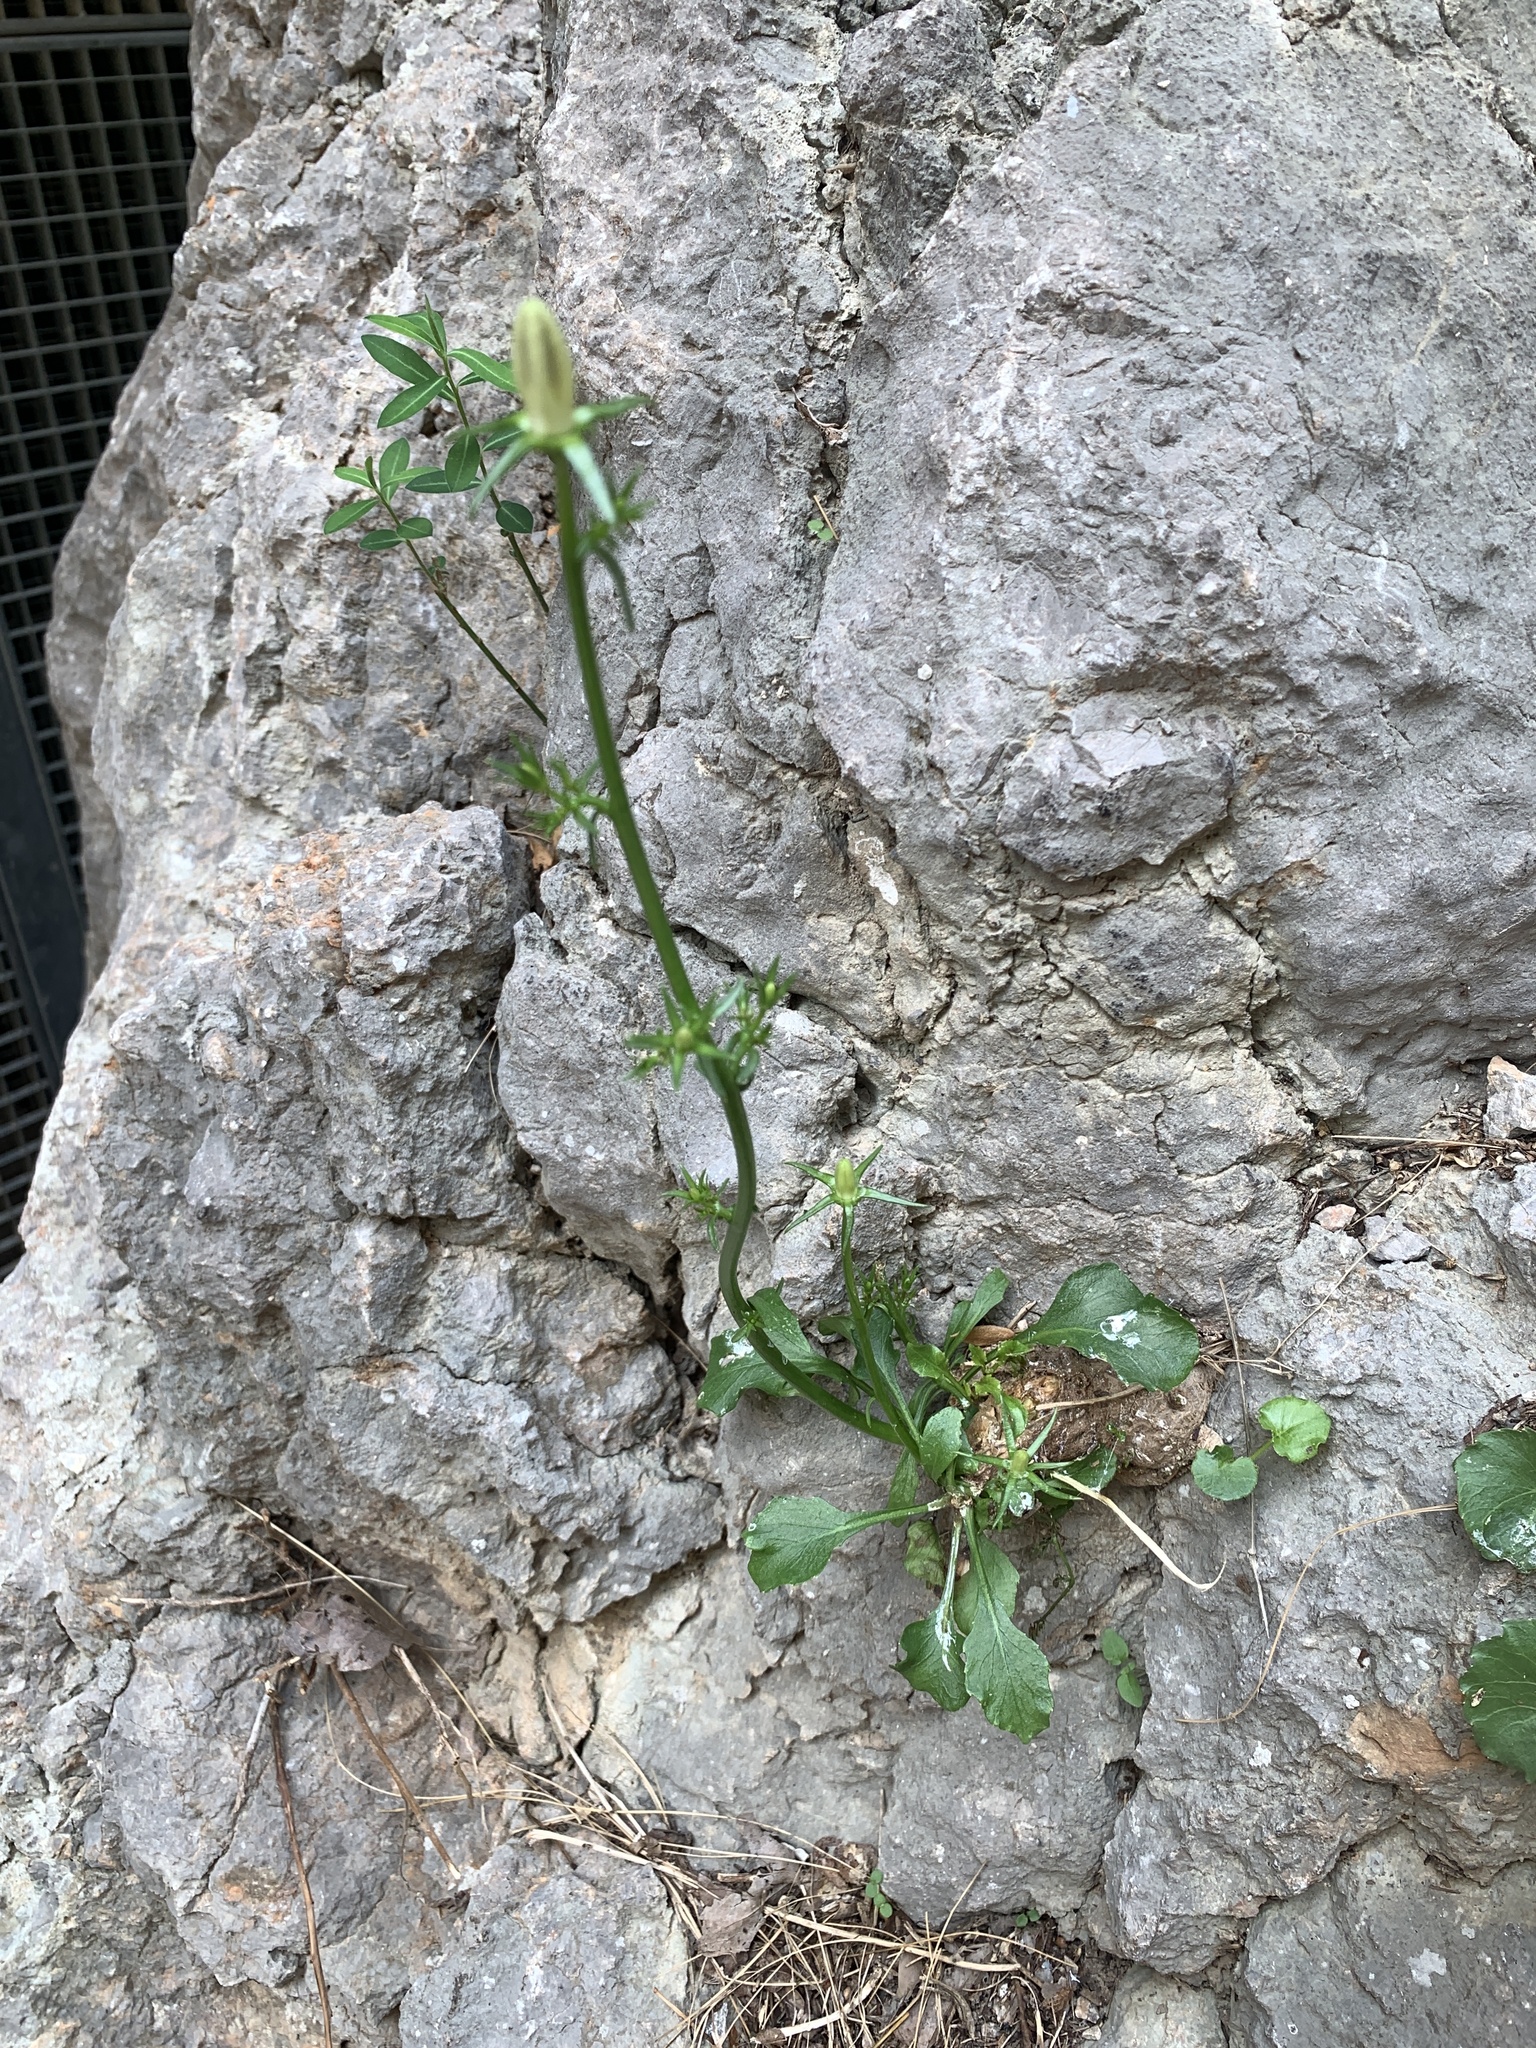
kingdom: Plantae
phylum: Tracheophyta
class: Magnoliopsida
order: Asterales
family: Campanulaceae
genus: Campanula
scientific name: Campanula pyramidalis
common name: Chimney bellflower
